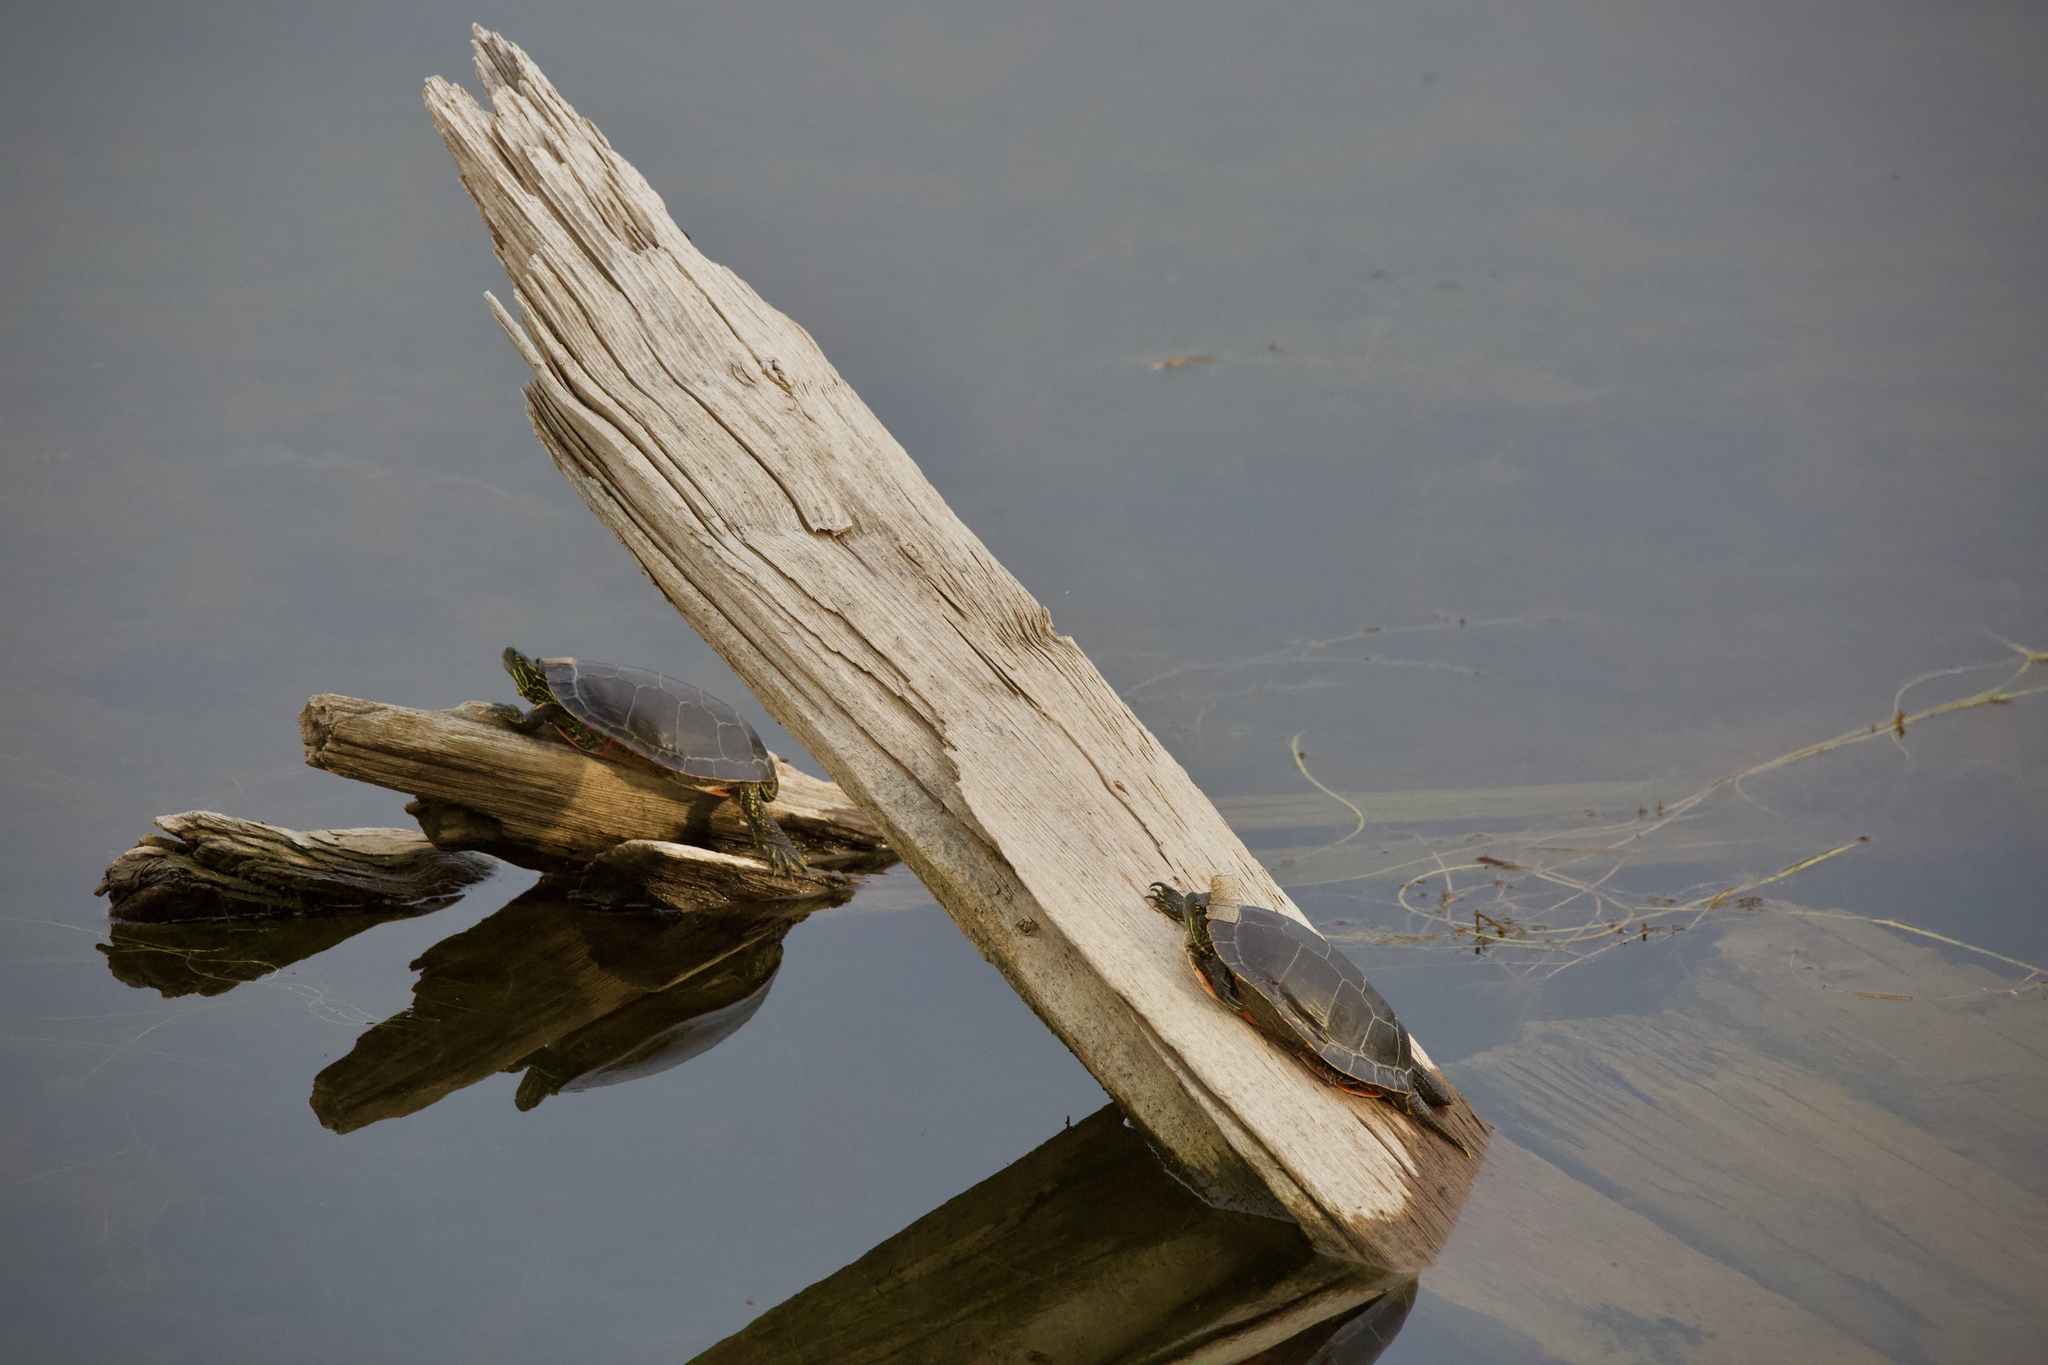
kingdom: Animalia
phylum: Chordata
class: Testudines
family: Emydidae
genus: Chrysemys
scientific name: Chrysemys picta
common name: Painted turtle
